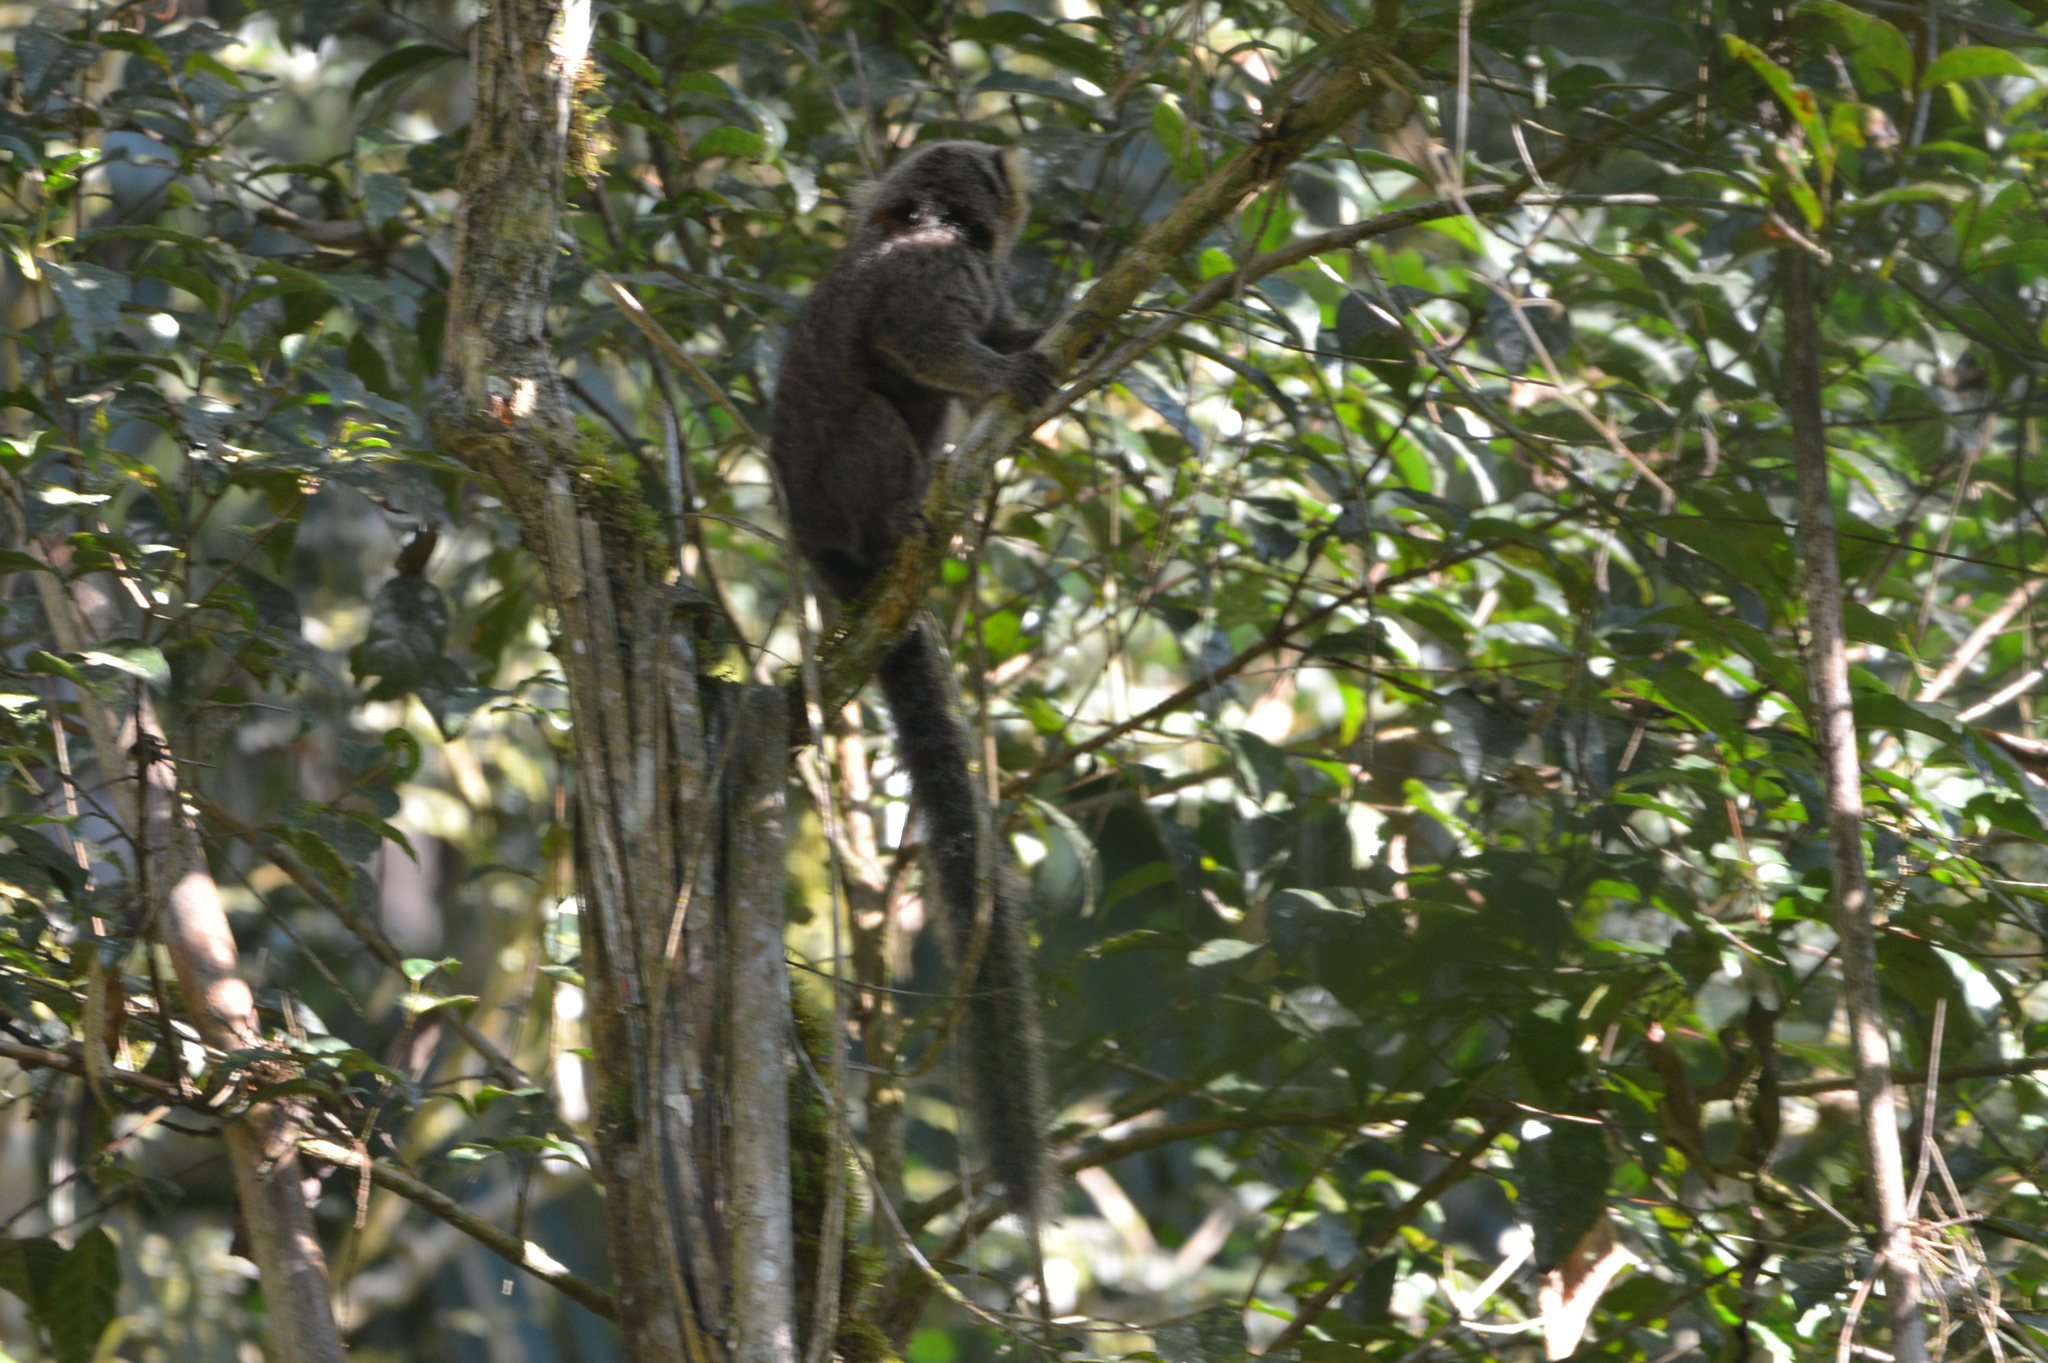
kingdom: Animalia
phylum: Chordata
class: Mammalia
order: Primates
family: Callitrichidae
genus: Callithrix
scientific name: Callithrix flaviceps
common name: Buffy-headed marmoset
